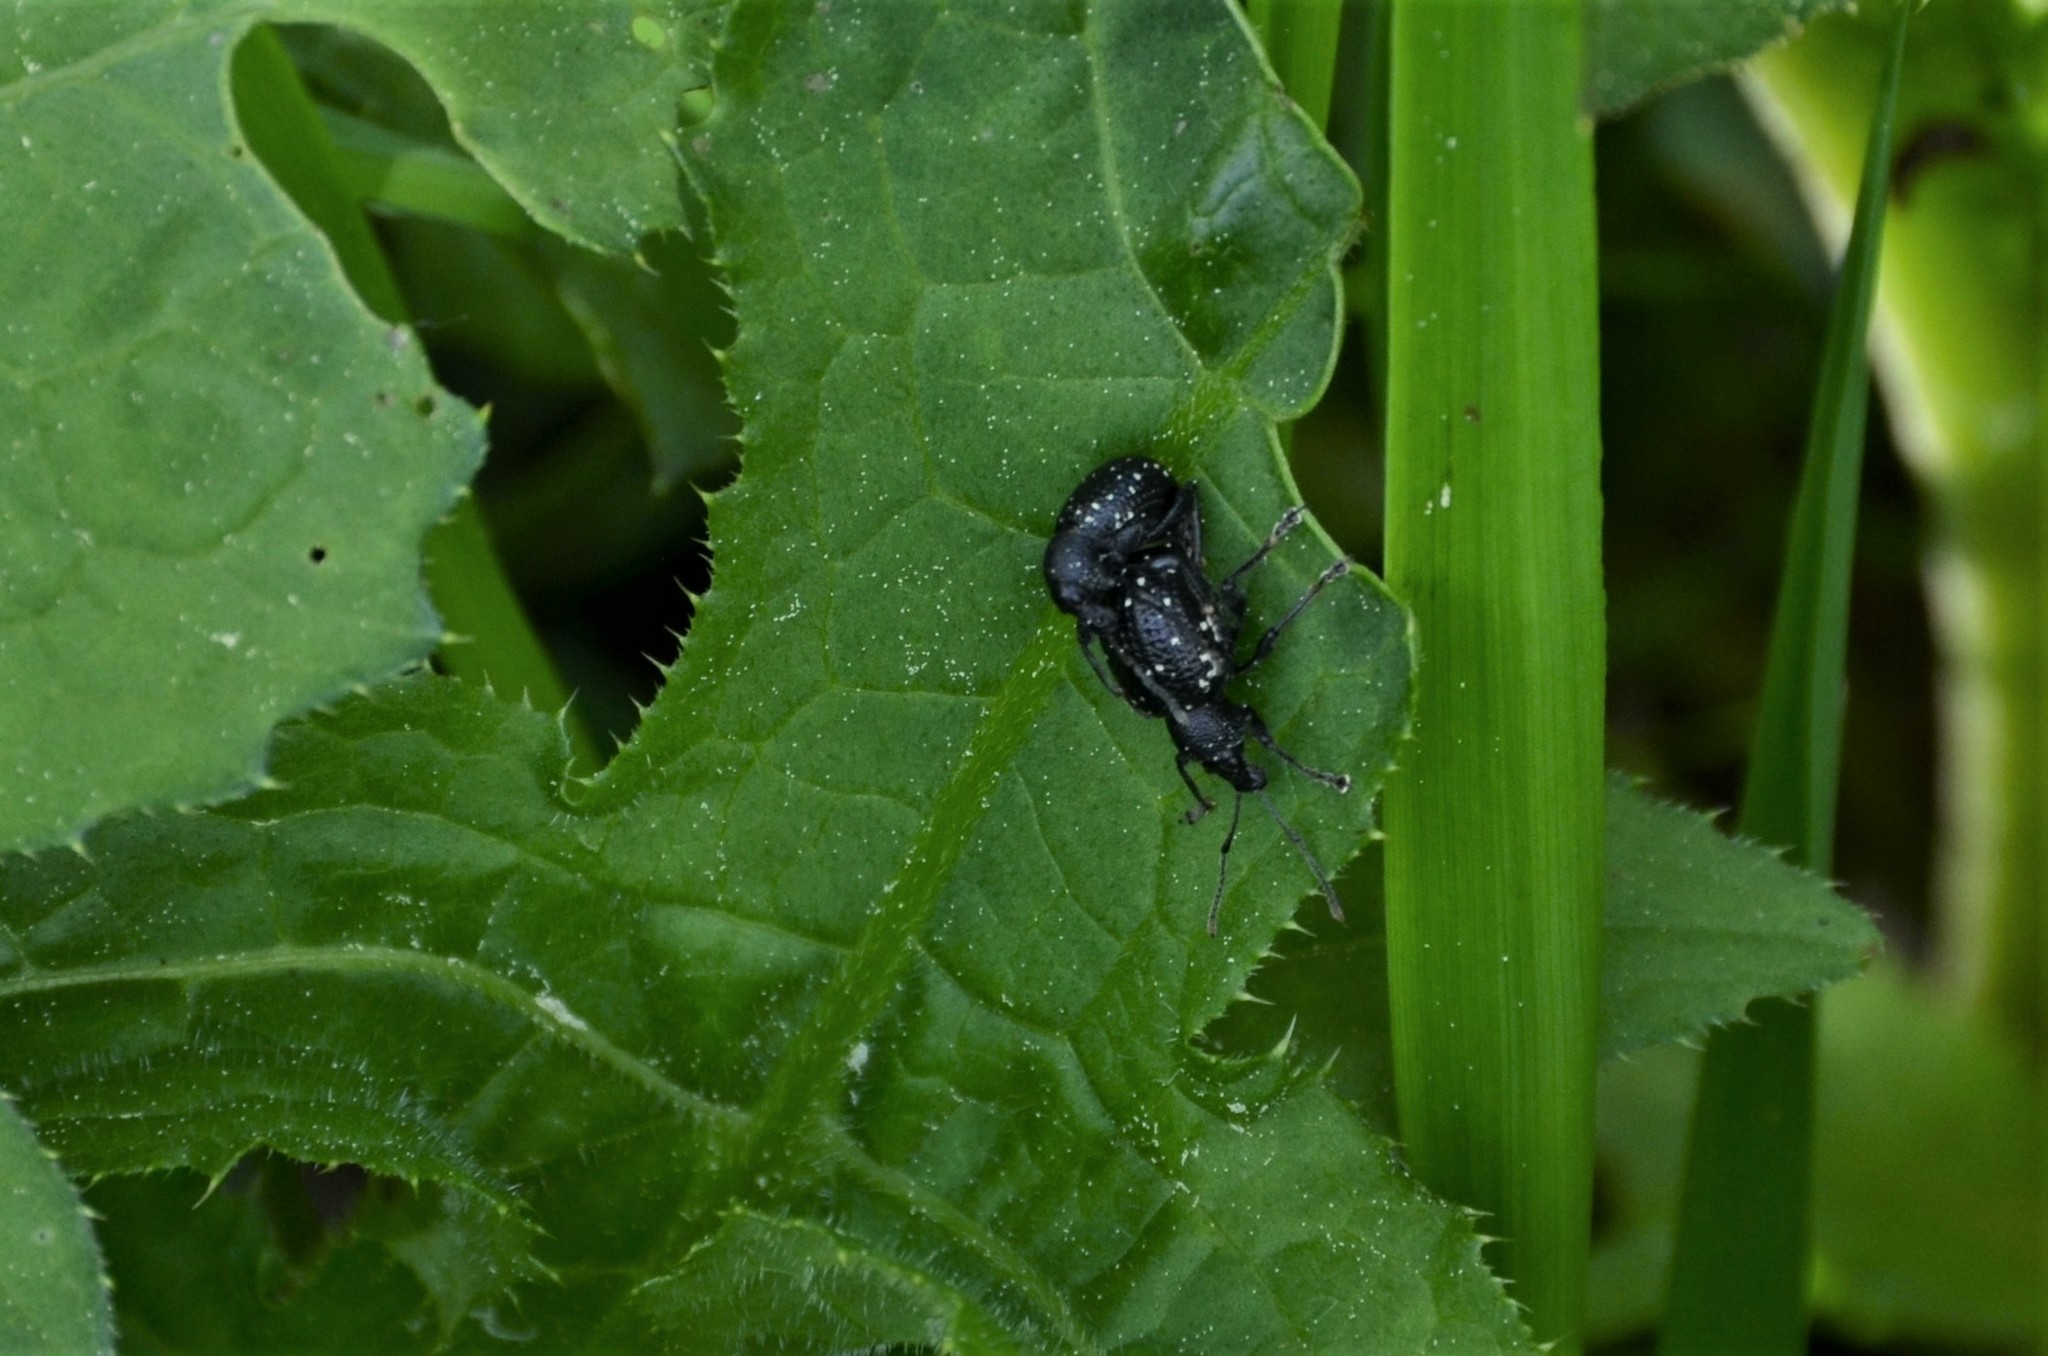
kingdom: Animalia
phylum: Arthropoda
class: Insecta
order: Coleoptera
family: Curculionidae
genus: Otiorhynchus
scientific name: Otiorhynchus gemmatus
